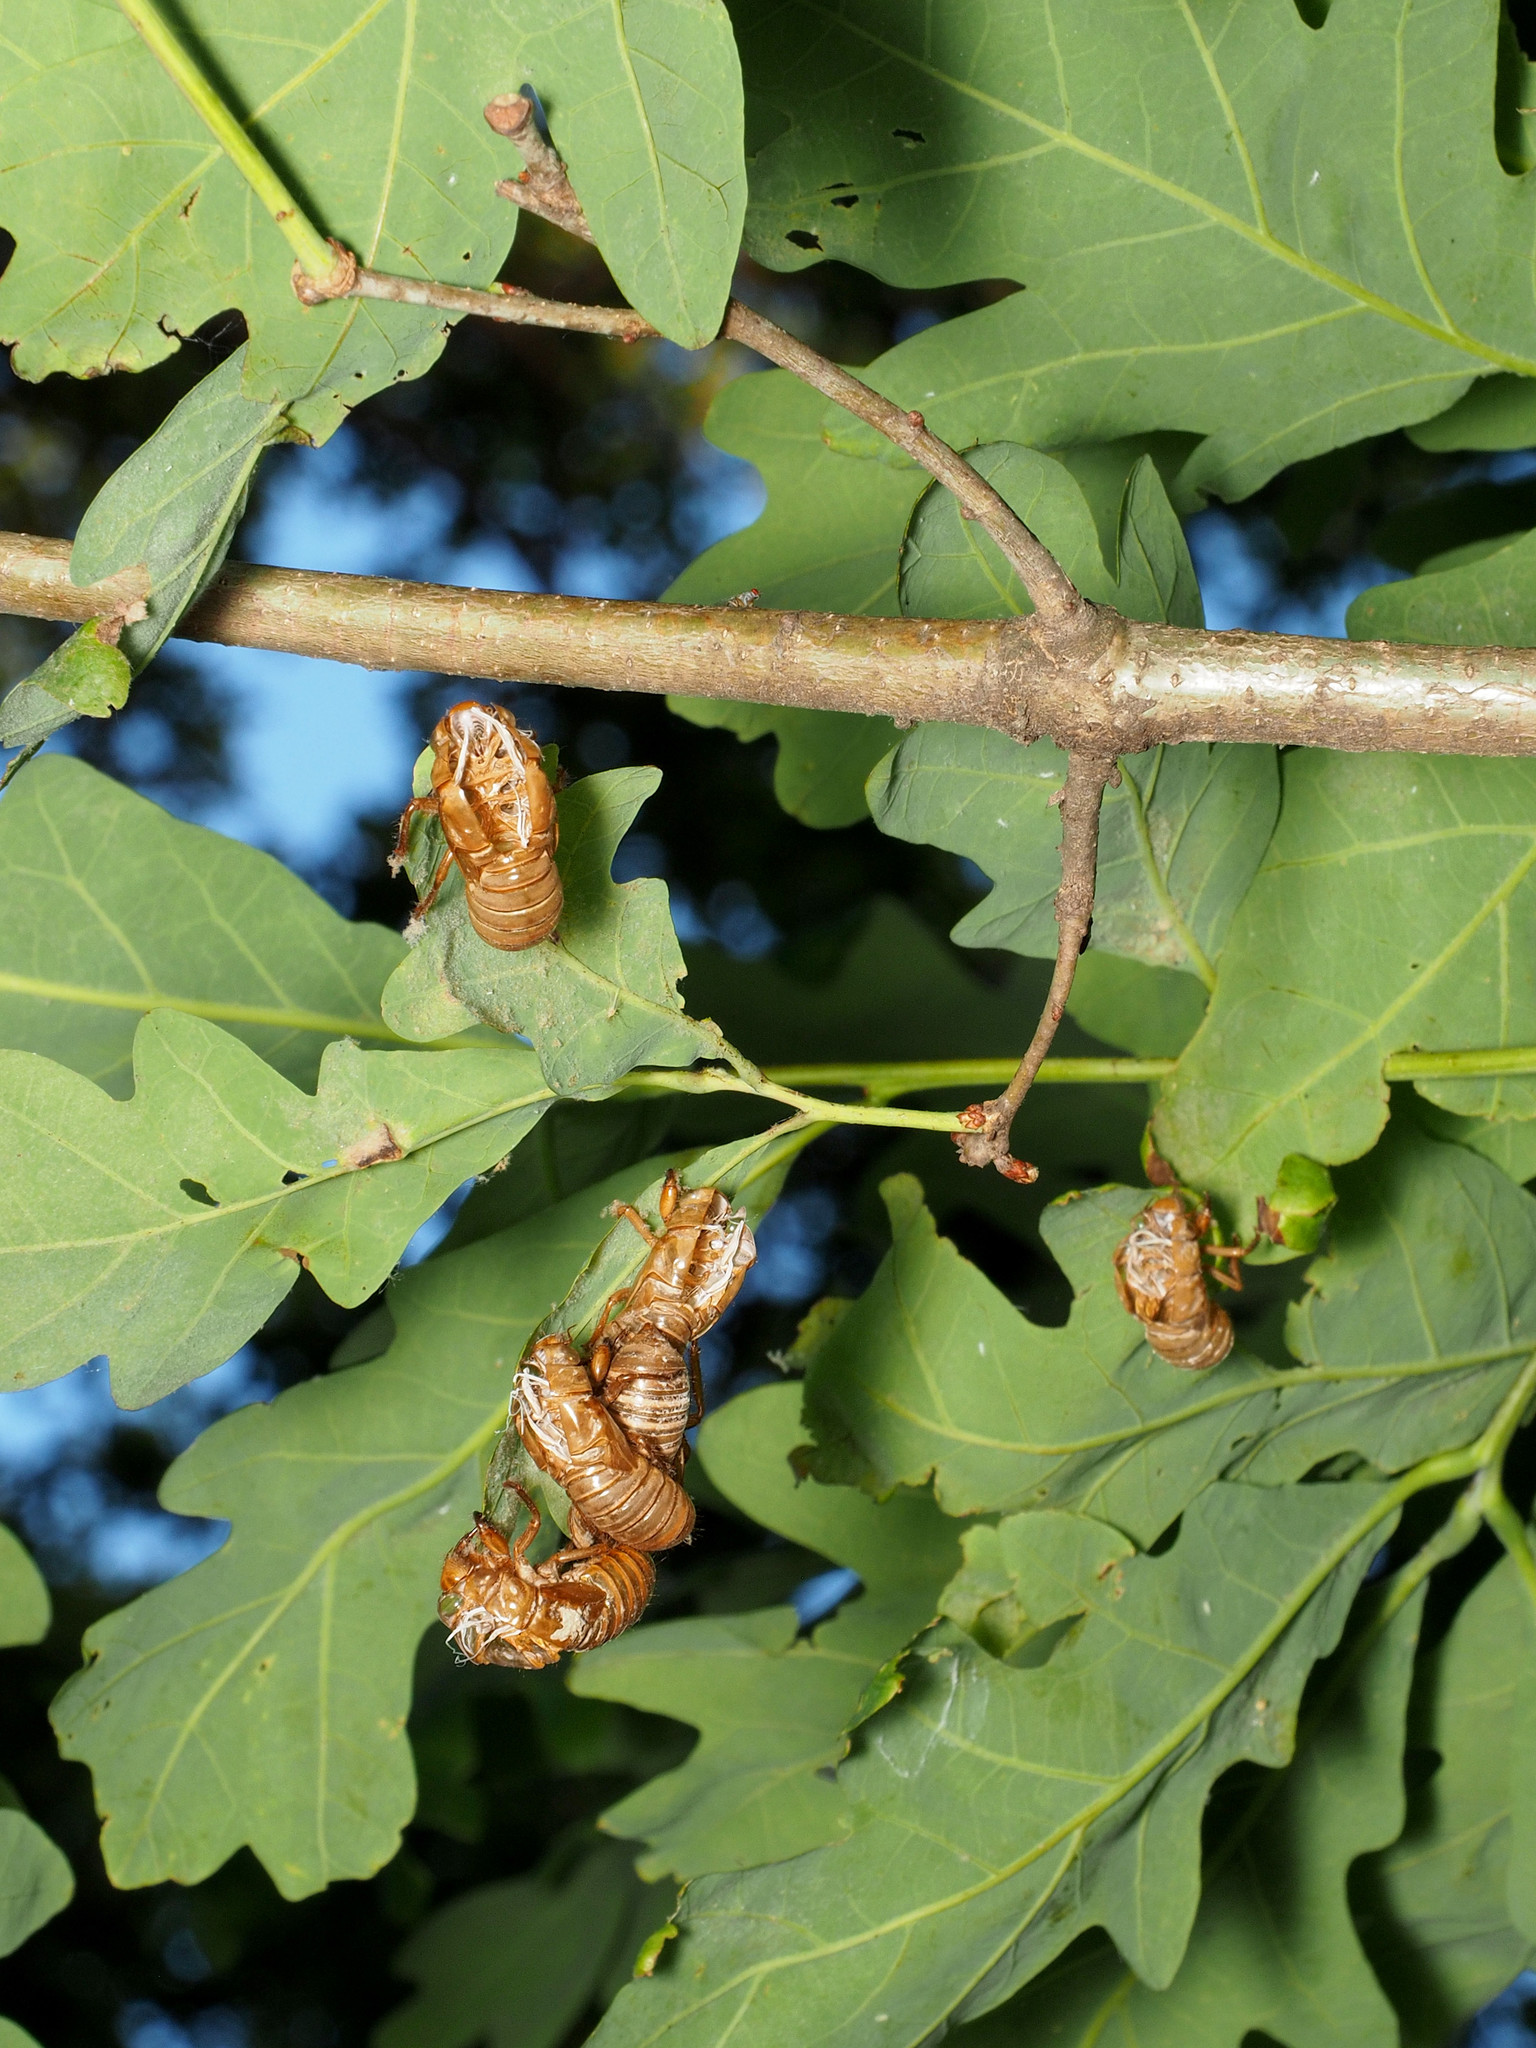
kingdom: Animalia
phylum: Arthropoda
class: Insecta
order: Hemiptera
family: Cicadidae
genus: Magicicada
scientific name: Magicicada
